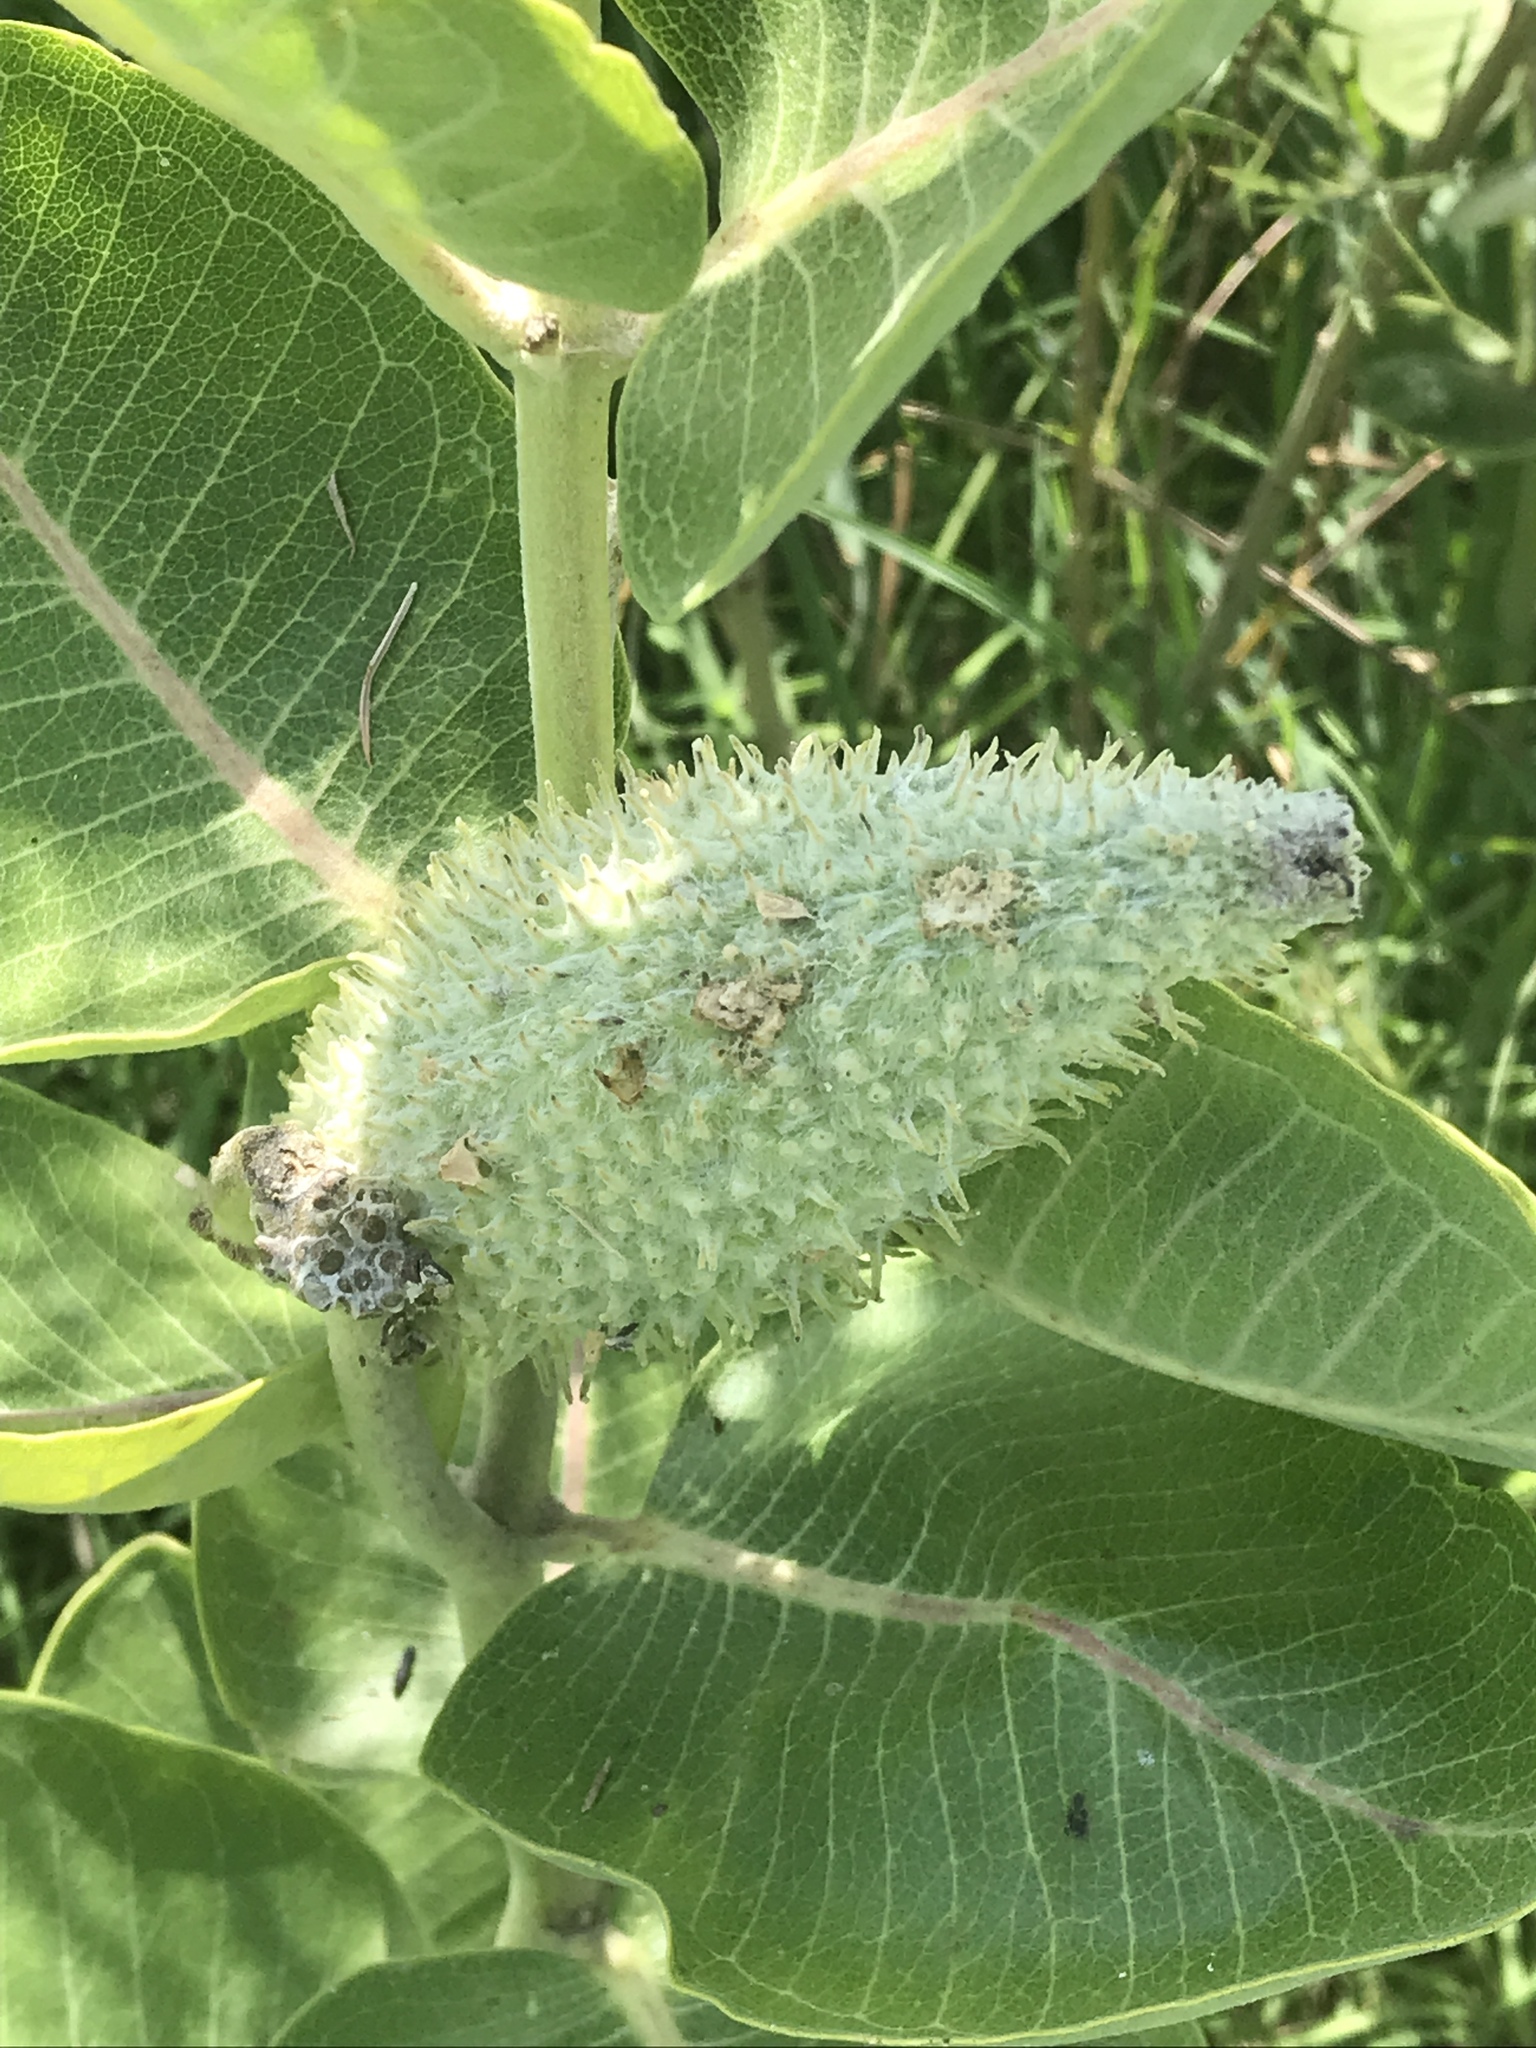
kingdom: Plantae
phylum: Tracheophyta
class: Magnoliopsida
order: Gentianales
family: Apocynaceae
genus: Asclepias
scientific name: Asclepias speciosa
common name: Showy milkweed
